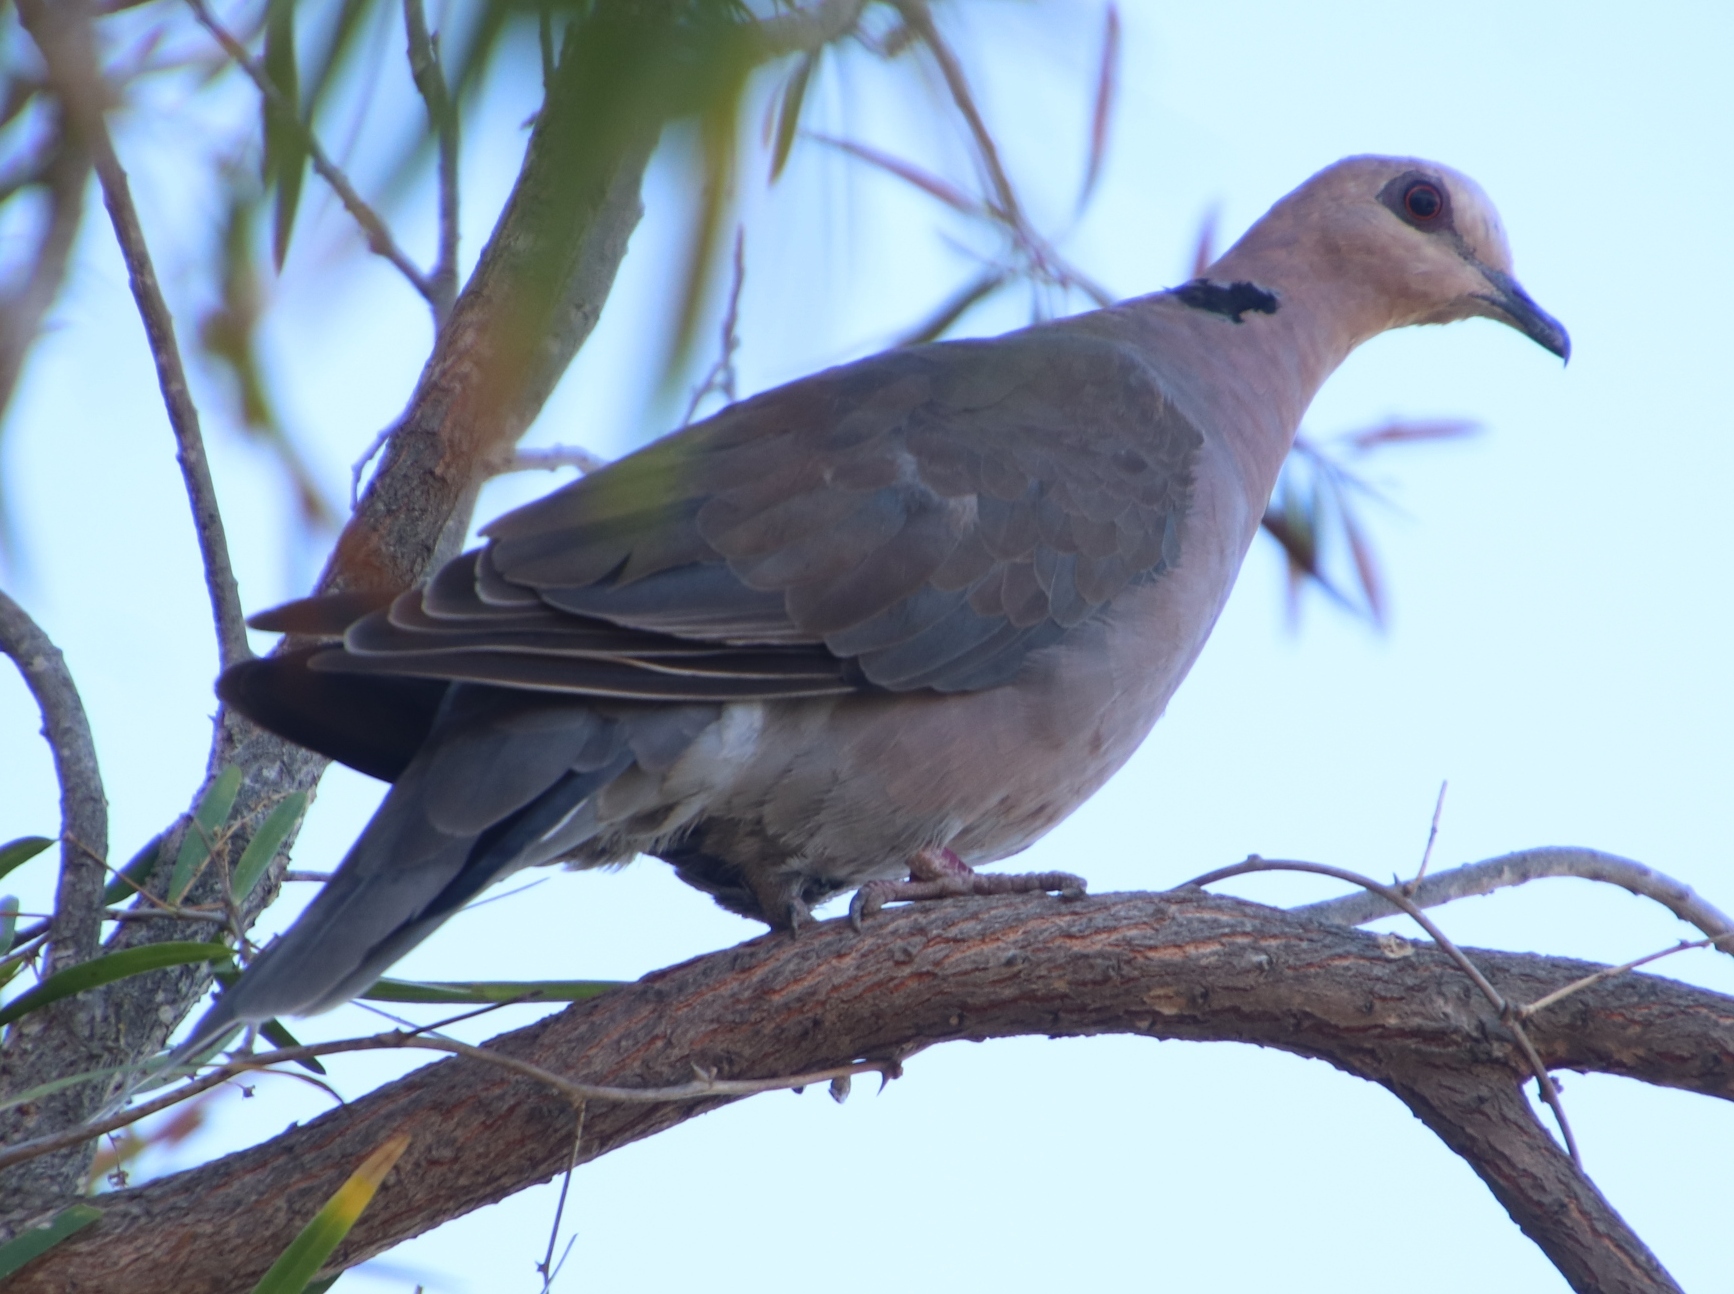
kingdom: Animalia
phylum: Chordata
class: Aves
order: Columbiformes
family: Columbidae
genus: Streptopelia
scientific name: Streptopelia semitorquata
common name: Red-eyed dove
